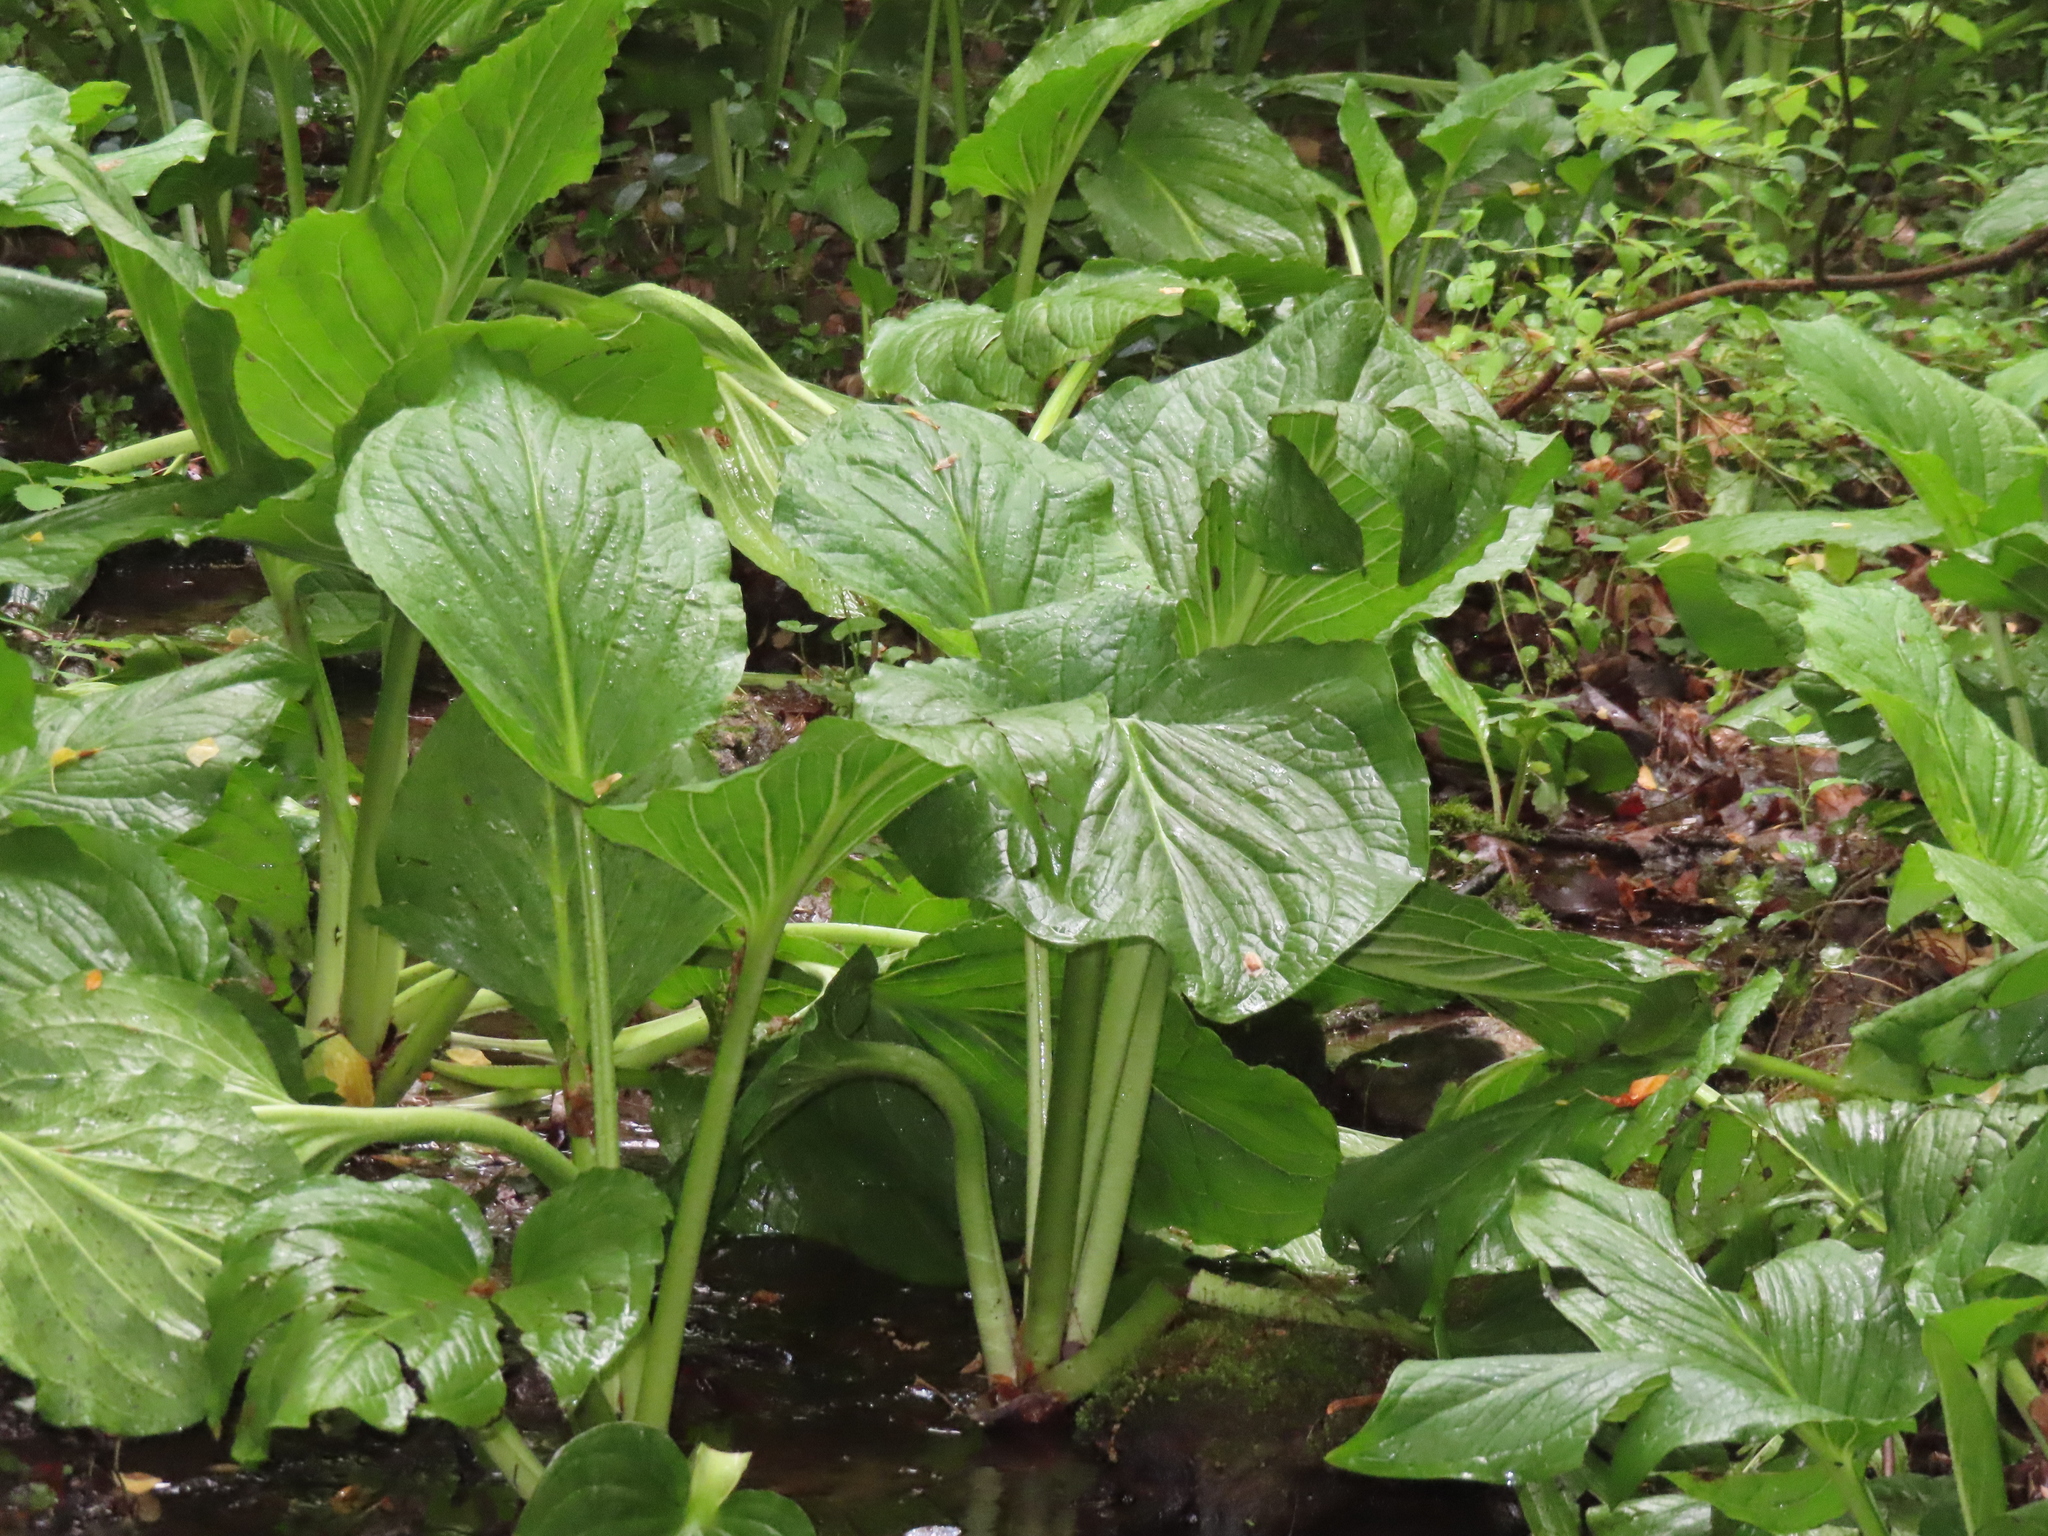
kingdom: Plantae
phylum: Tracheophyta
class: Liliopsida
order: Alismatales
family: Araceae
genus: Symplocarpus
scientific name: Symplocarpus foetidus
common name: Eastern skunk cabbage
